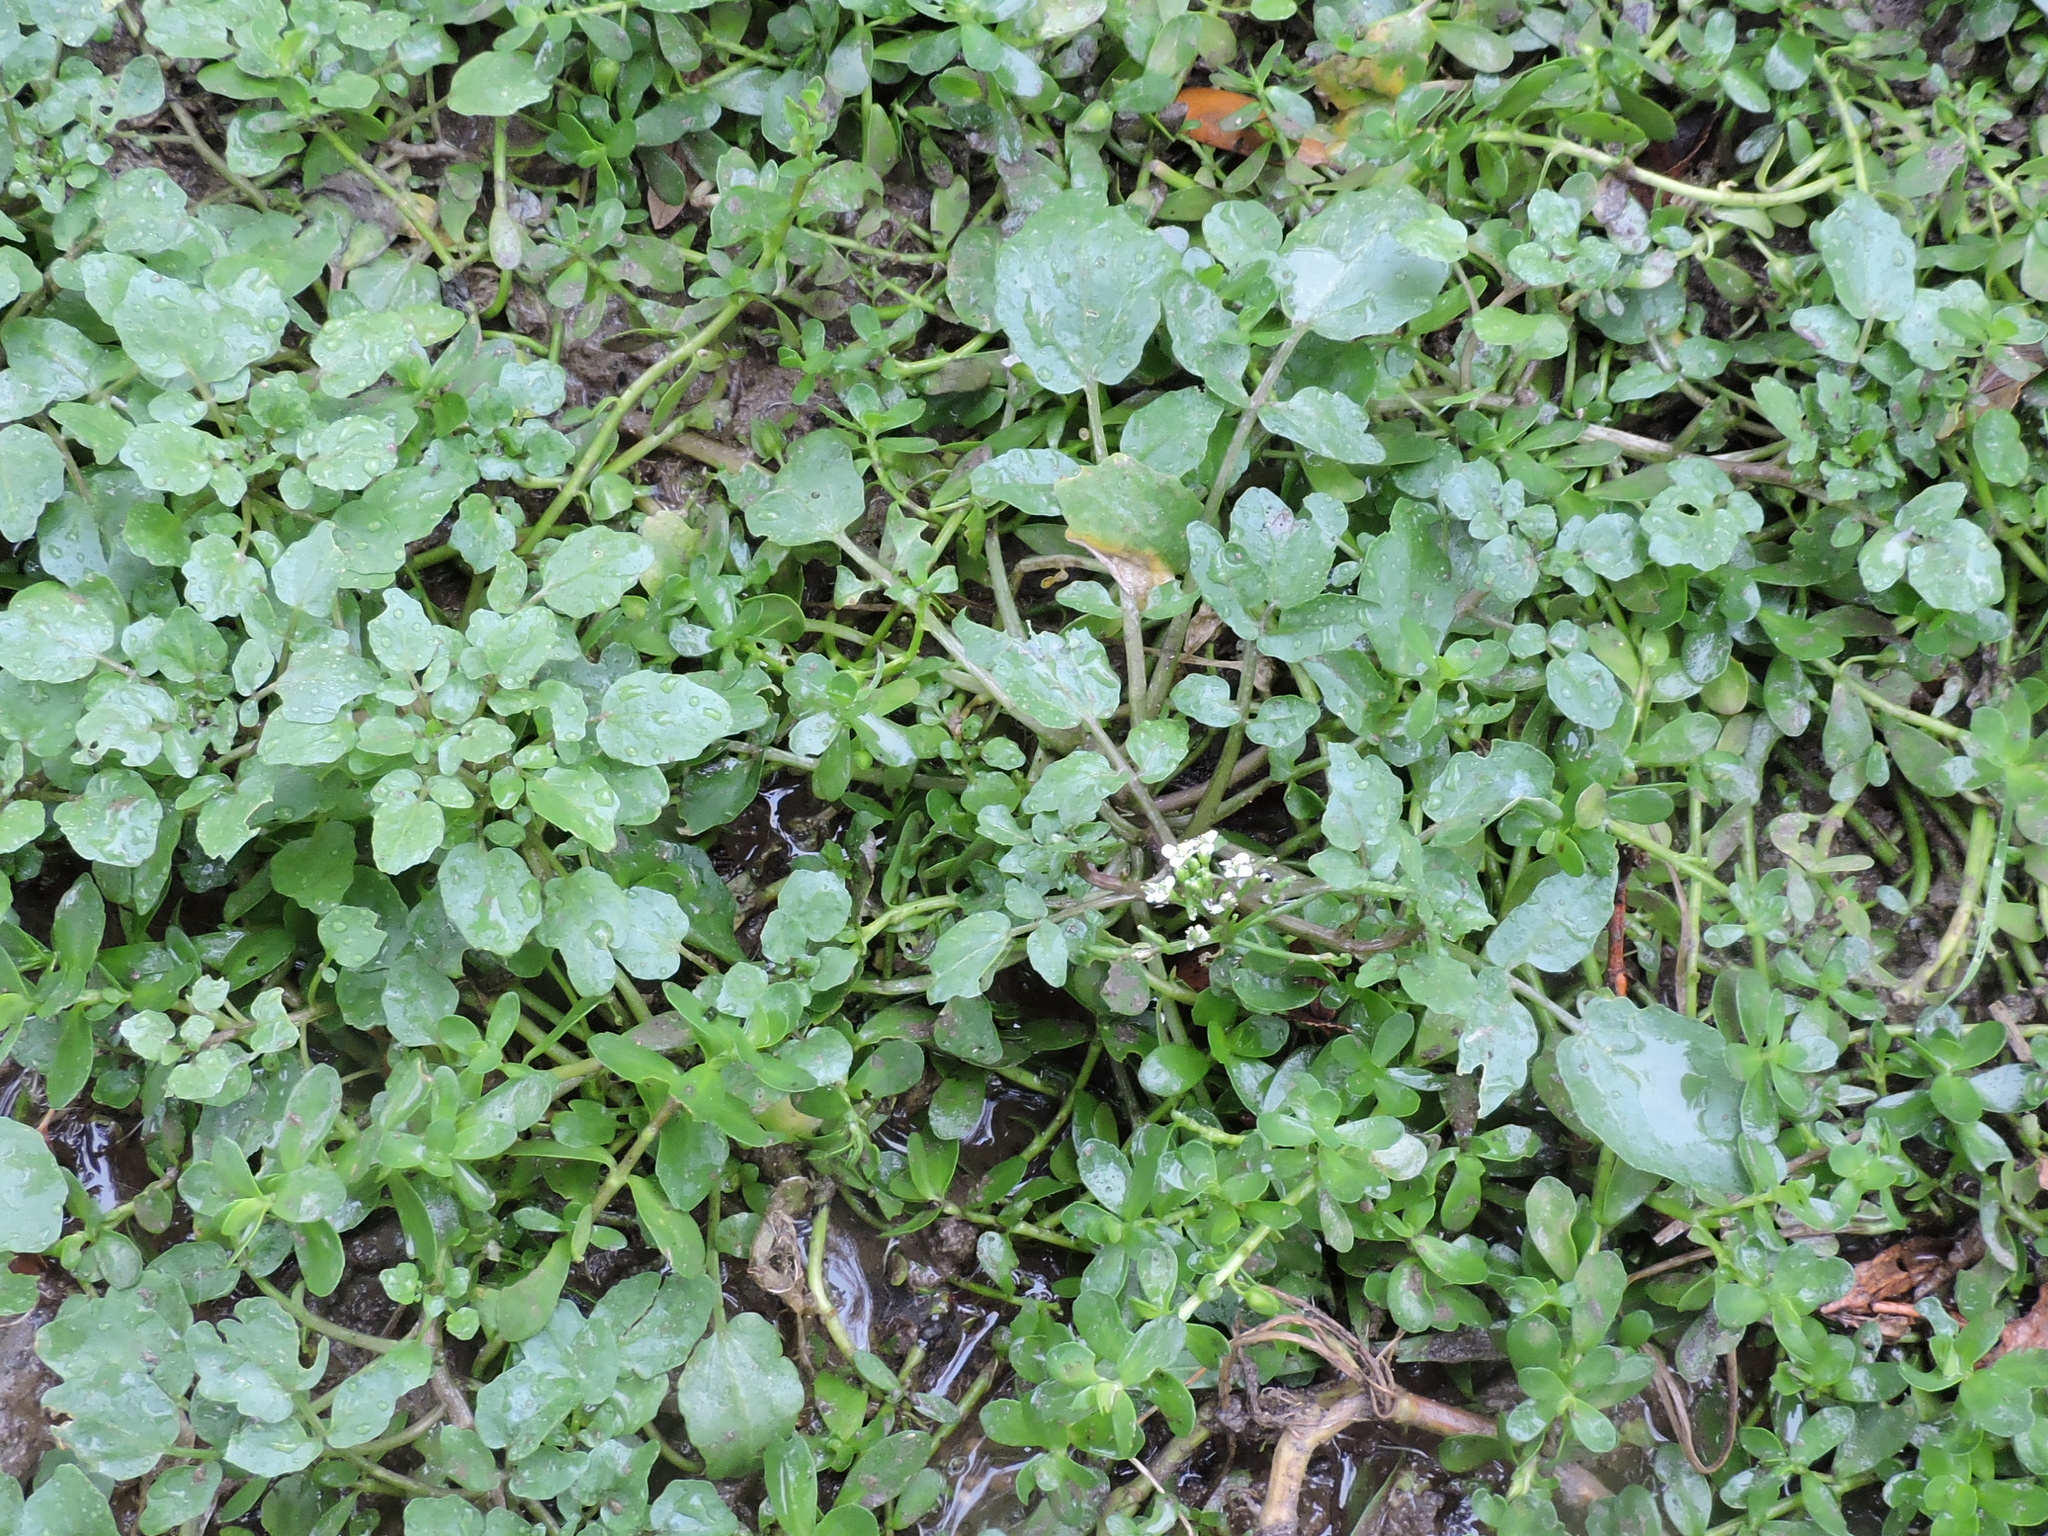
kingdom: Plantae
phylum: Tracheophyta
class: Magnoliopsida
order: Brassicales
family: Brassicaceae
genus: Nasturtium
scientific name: Nasturtium officinale
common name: Watercress
